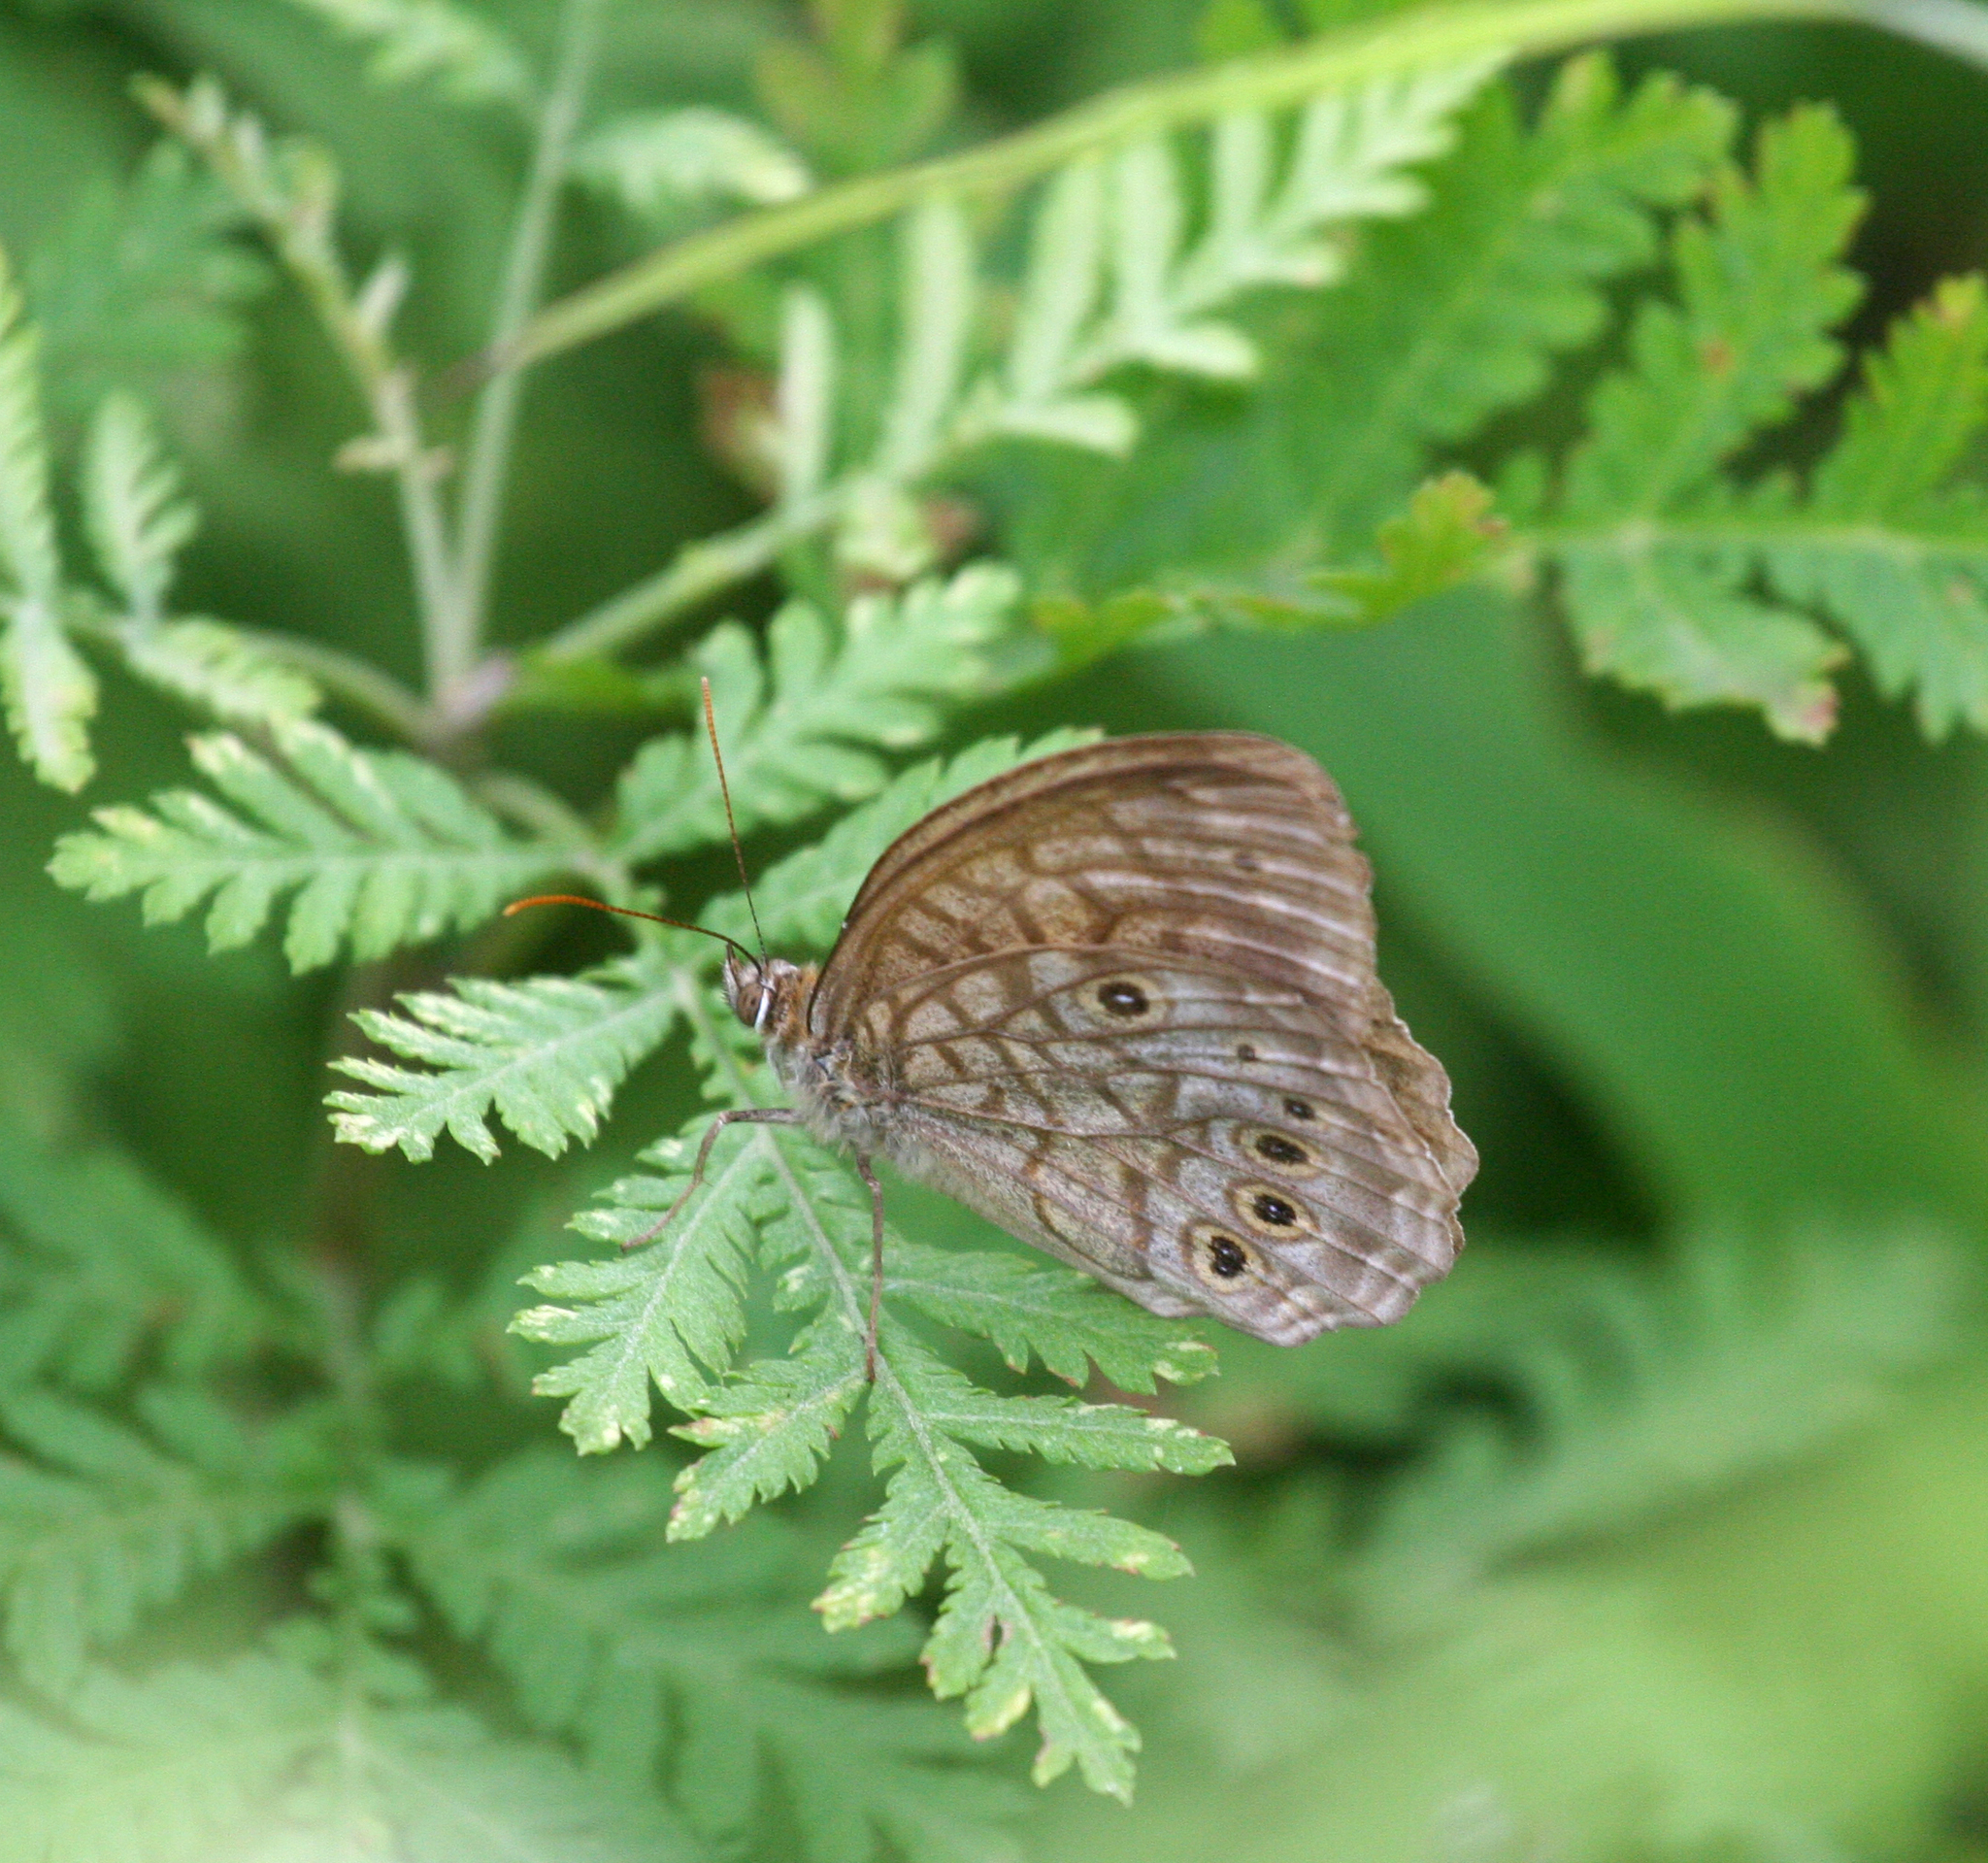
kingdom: Animalia
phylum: Arthropoda
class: Insecta
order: Lepidoptera
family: Nymphalidae
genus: Kirinia
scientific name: Kirinia epimenides
